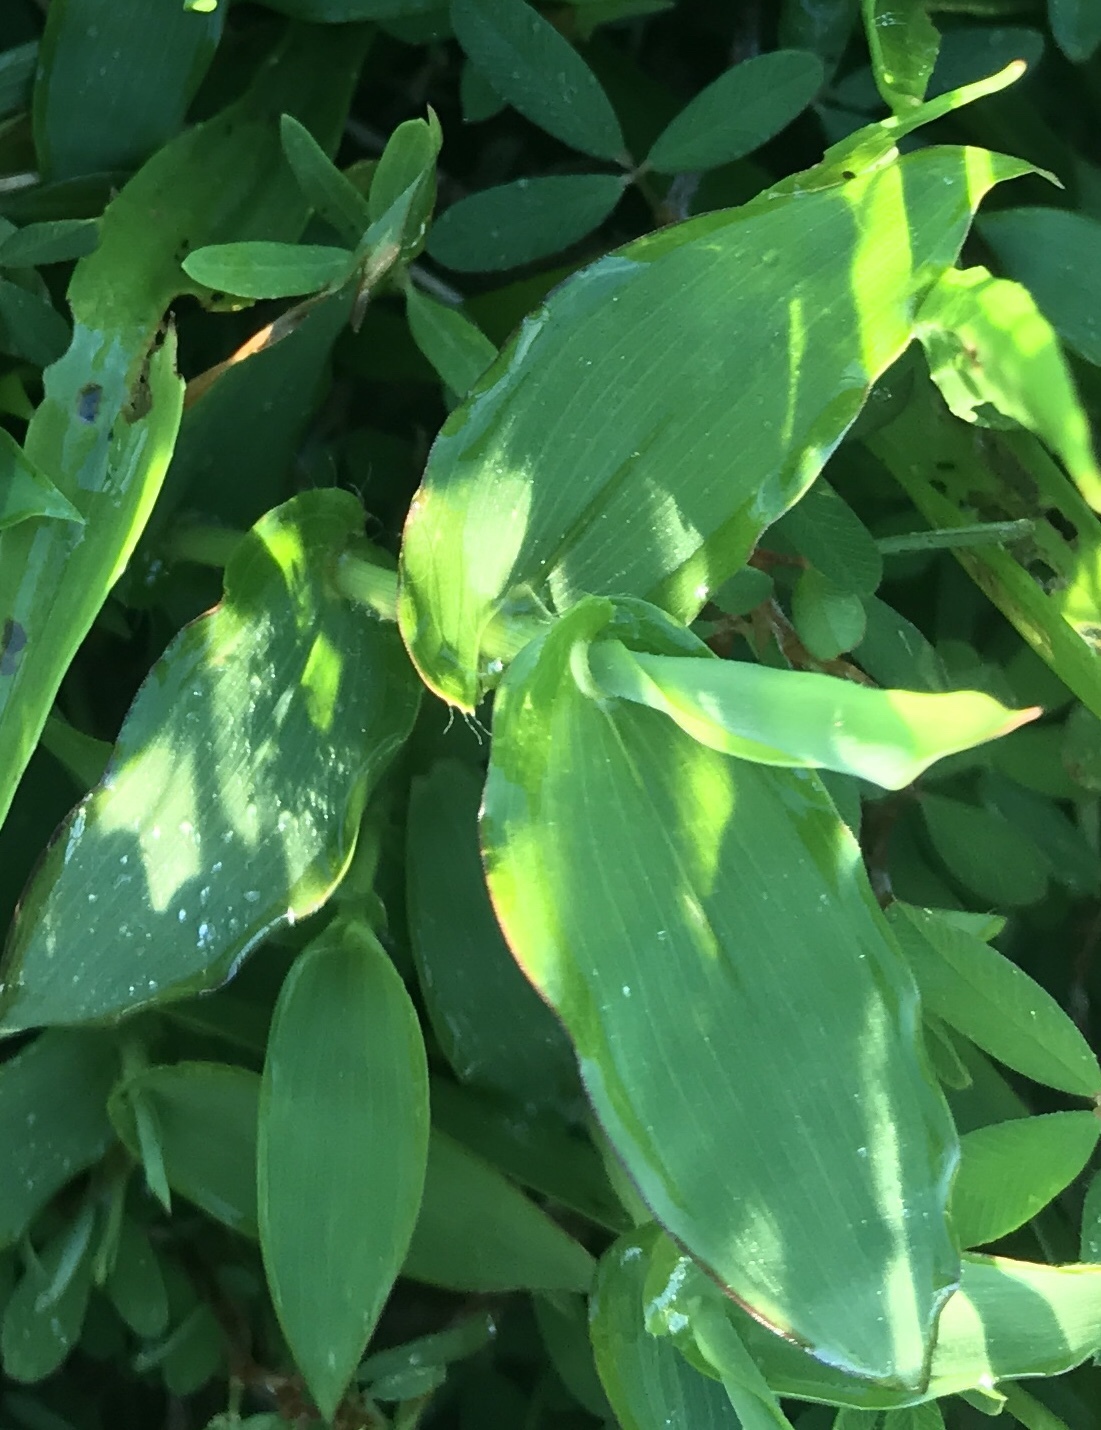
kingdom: Plantae
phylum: Tracheophyta
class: Liliopsida
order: Poales
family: Poaceae
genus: Arthraxon
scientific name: Arthraxon hispidus
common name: Small carpgrass
